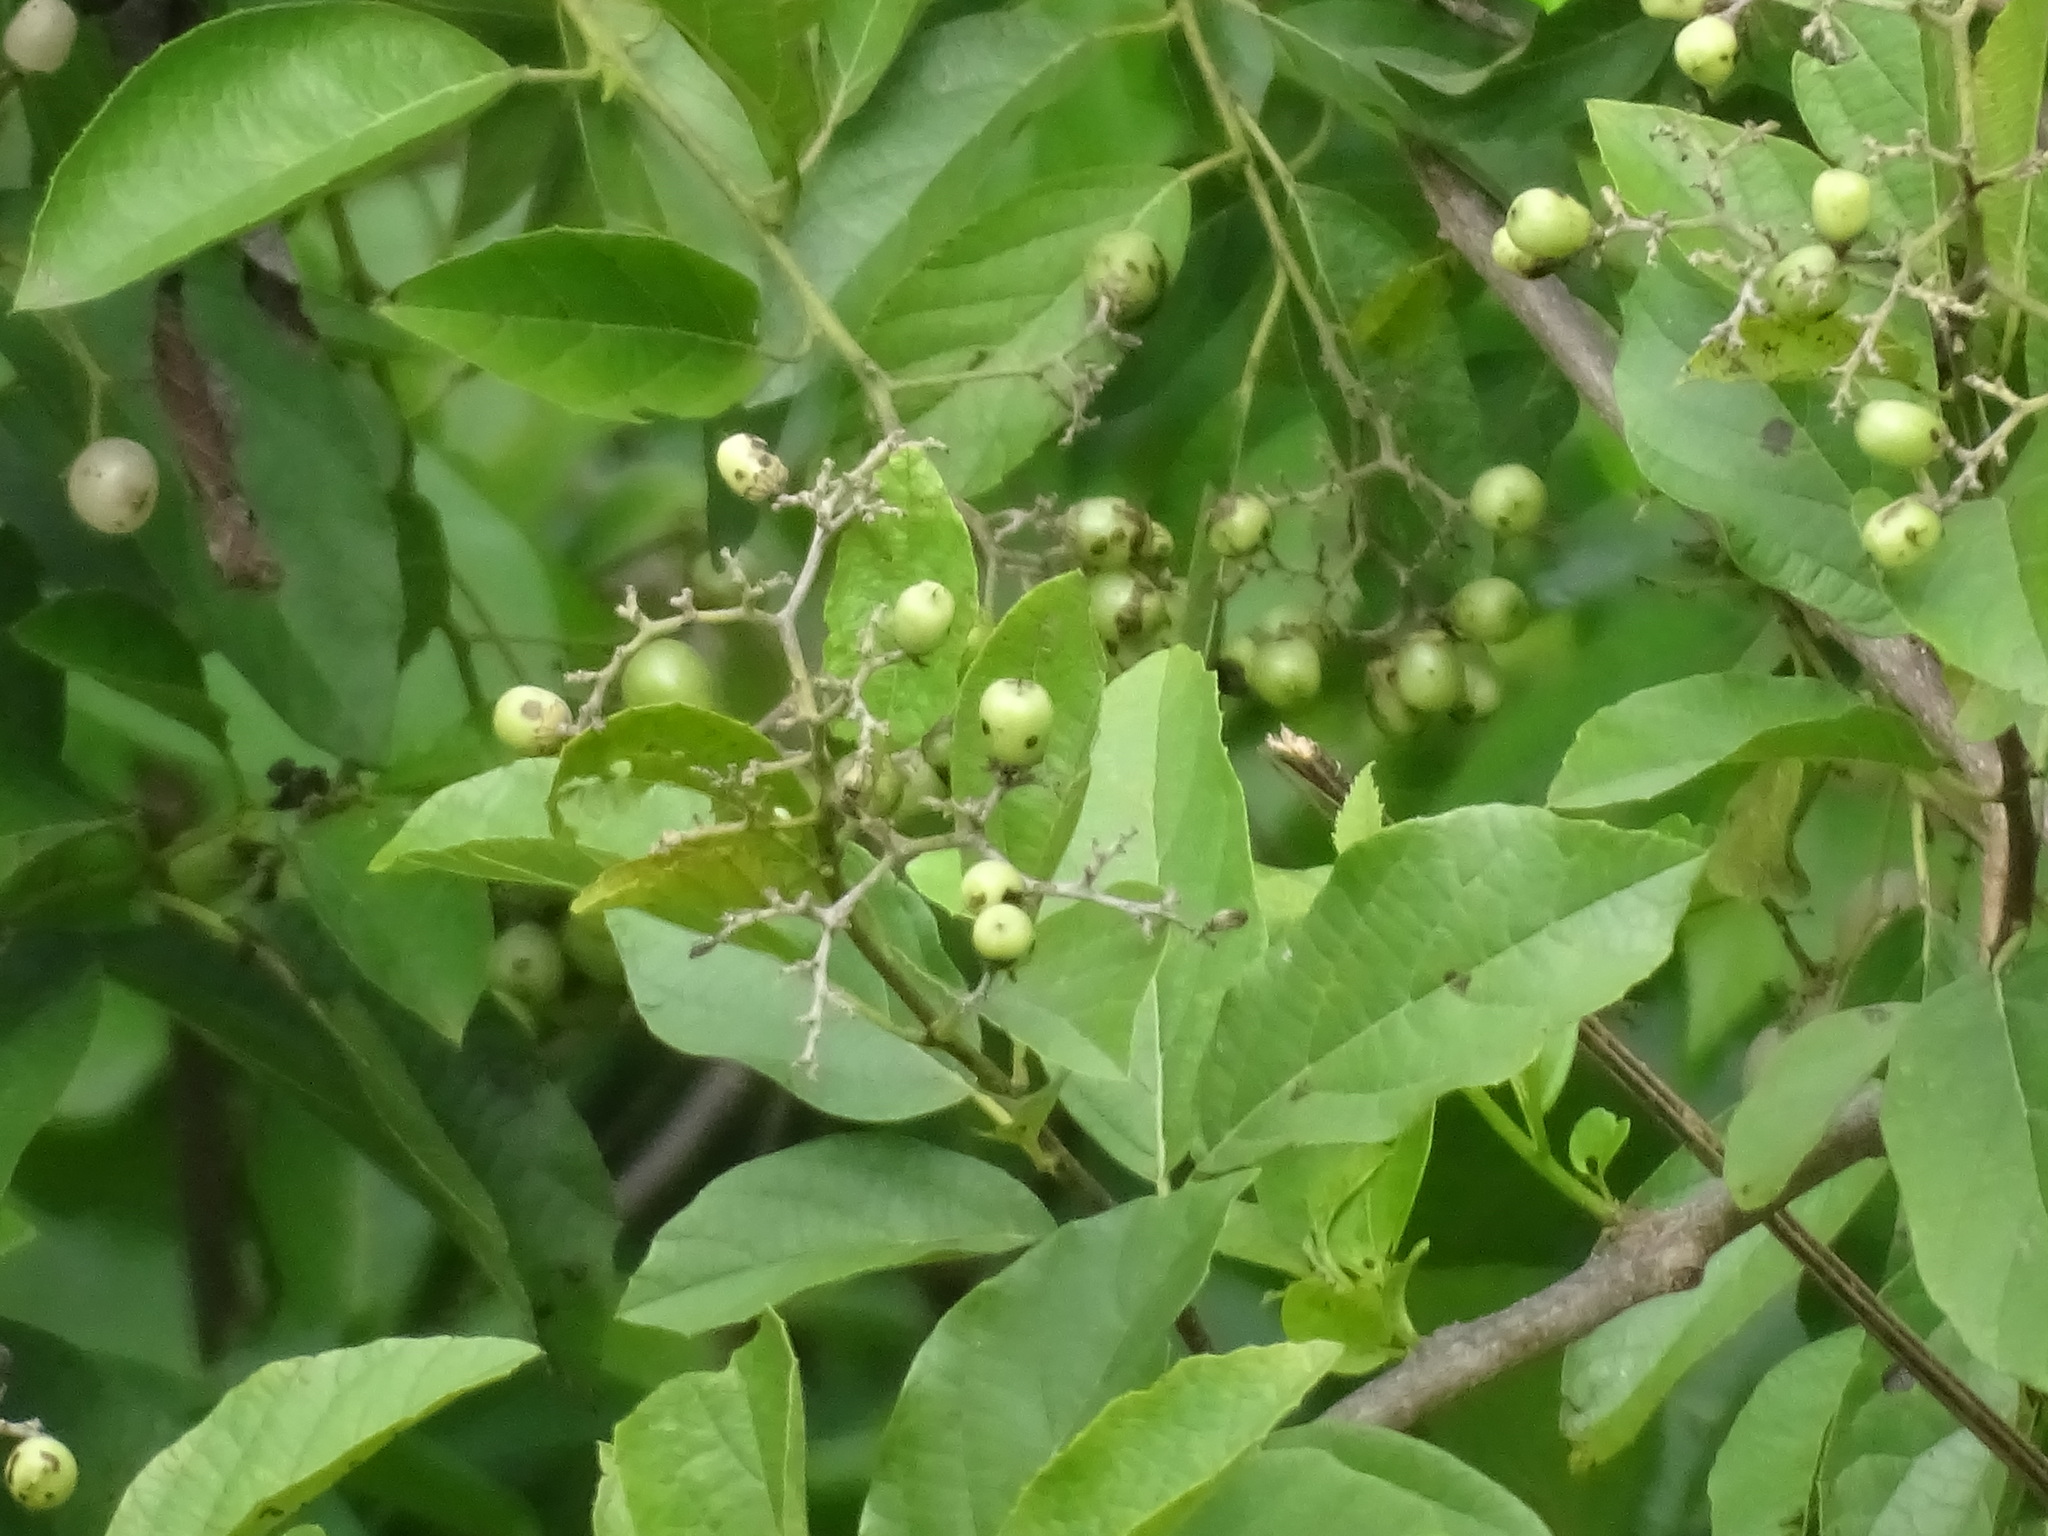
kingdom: Plantae
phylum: Tracheophyta
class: Magnoliopsida
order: Boraginales
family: Cordiaceae
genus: Cordia
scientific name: Cordia dentata
